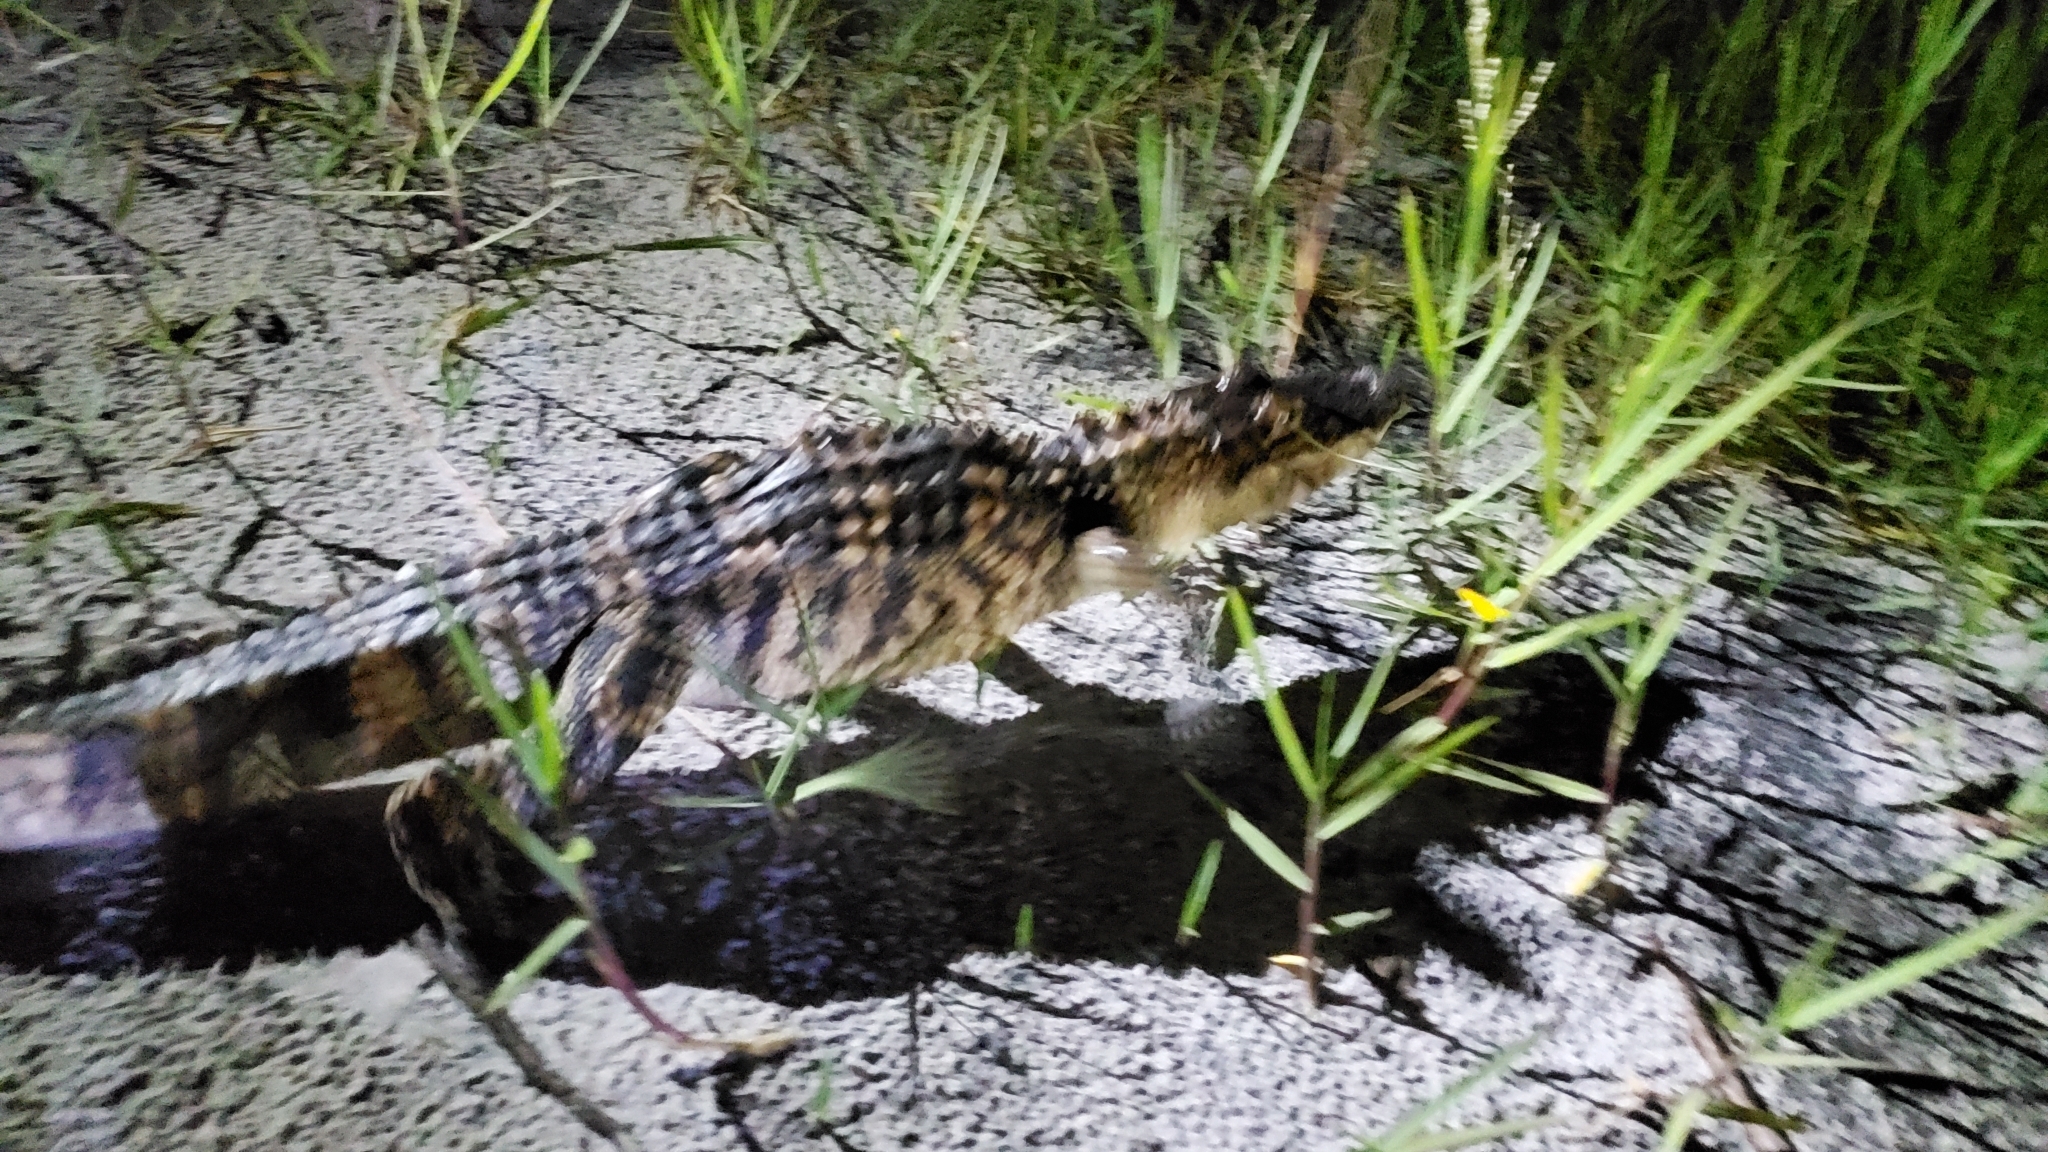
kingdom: Animalia
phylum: Chordata
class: Crocodylia
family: Alligatoridae
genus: Alligator
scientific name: Alligator mississippiensis
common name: American alligator
